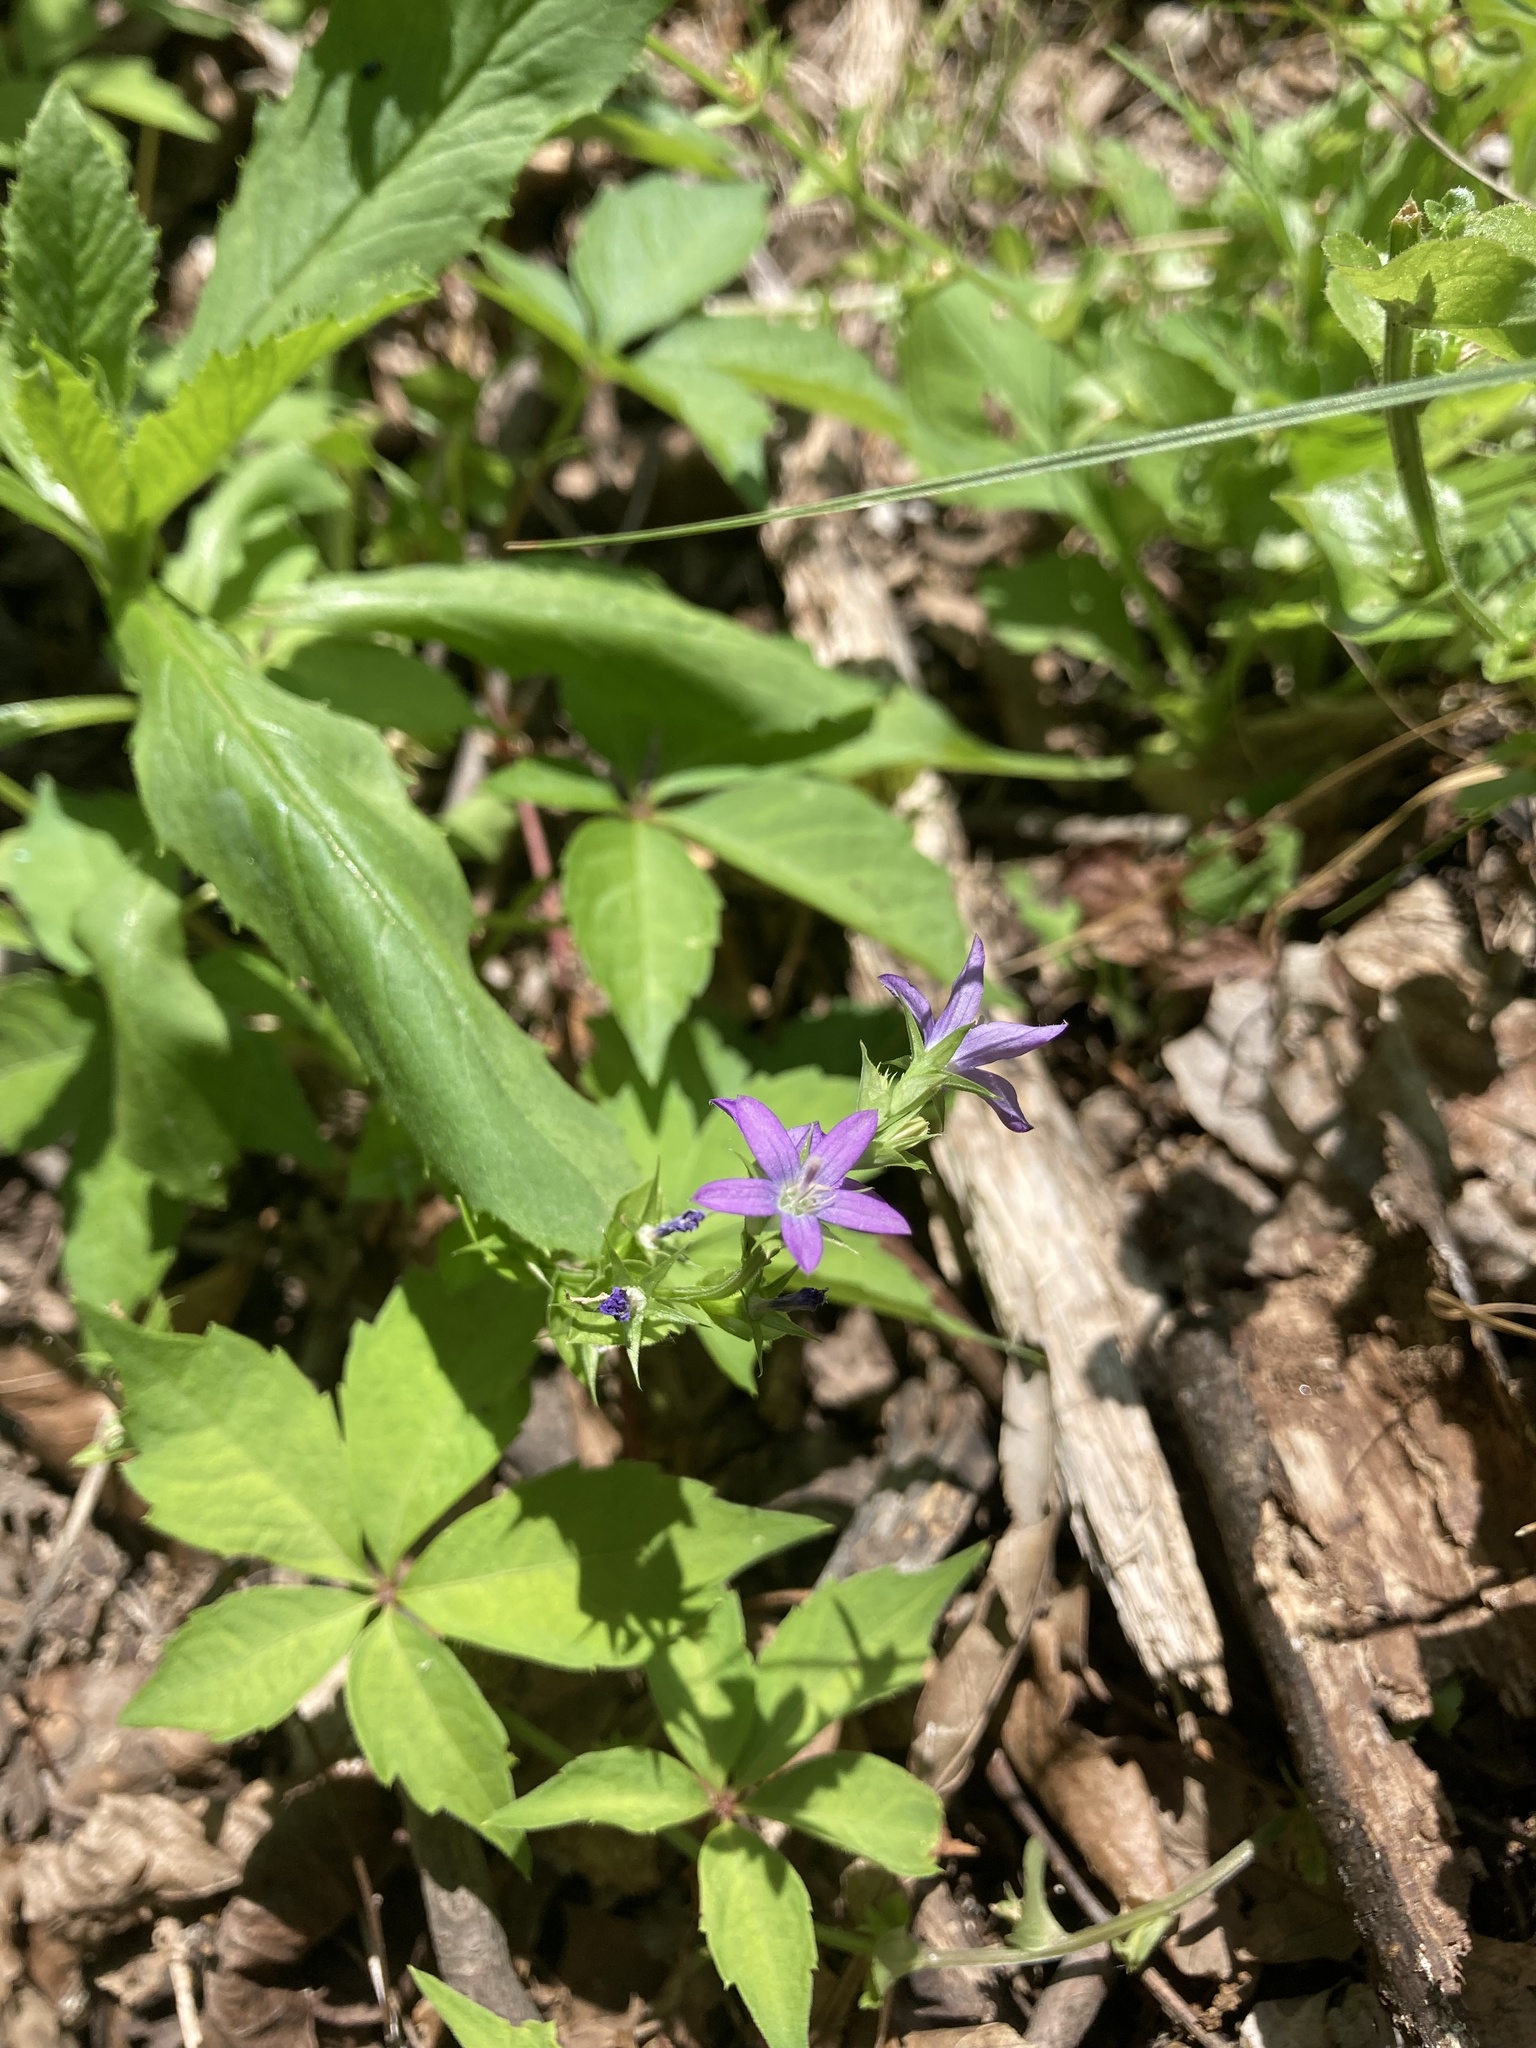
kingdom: Plantae
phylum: Tracheophyta
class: Magnoliopsida
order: Asterales
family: Campanulaceae
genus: Triodanis
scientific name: Triodanis perfoliata
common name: Clasping venus' looking-glass
